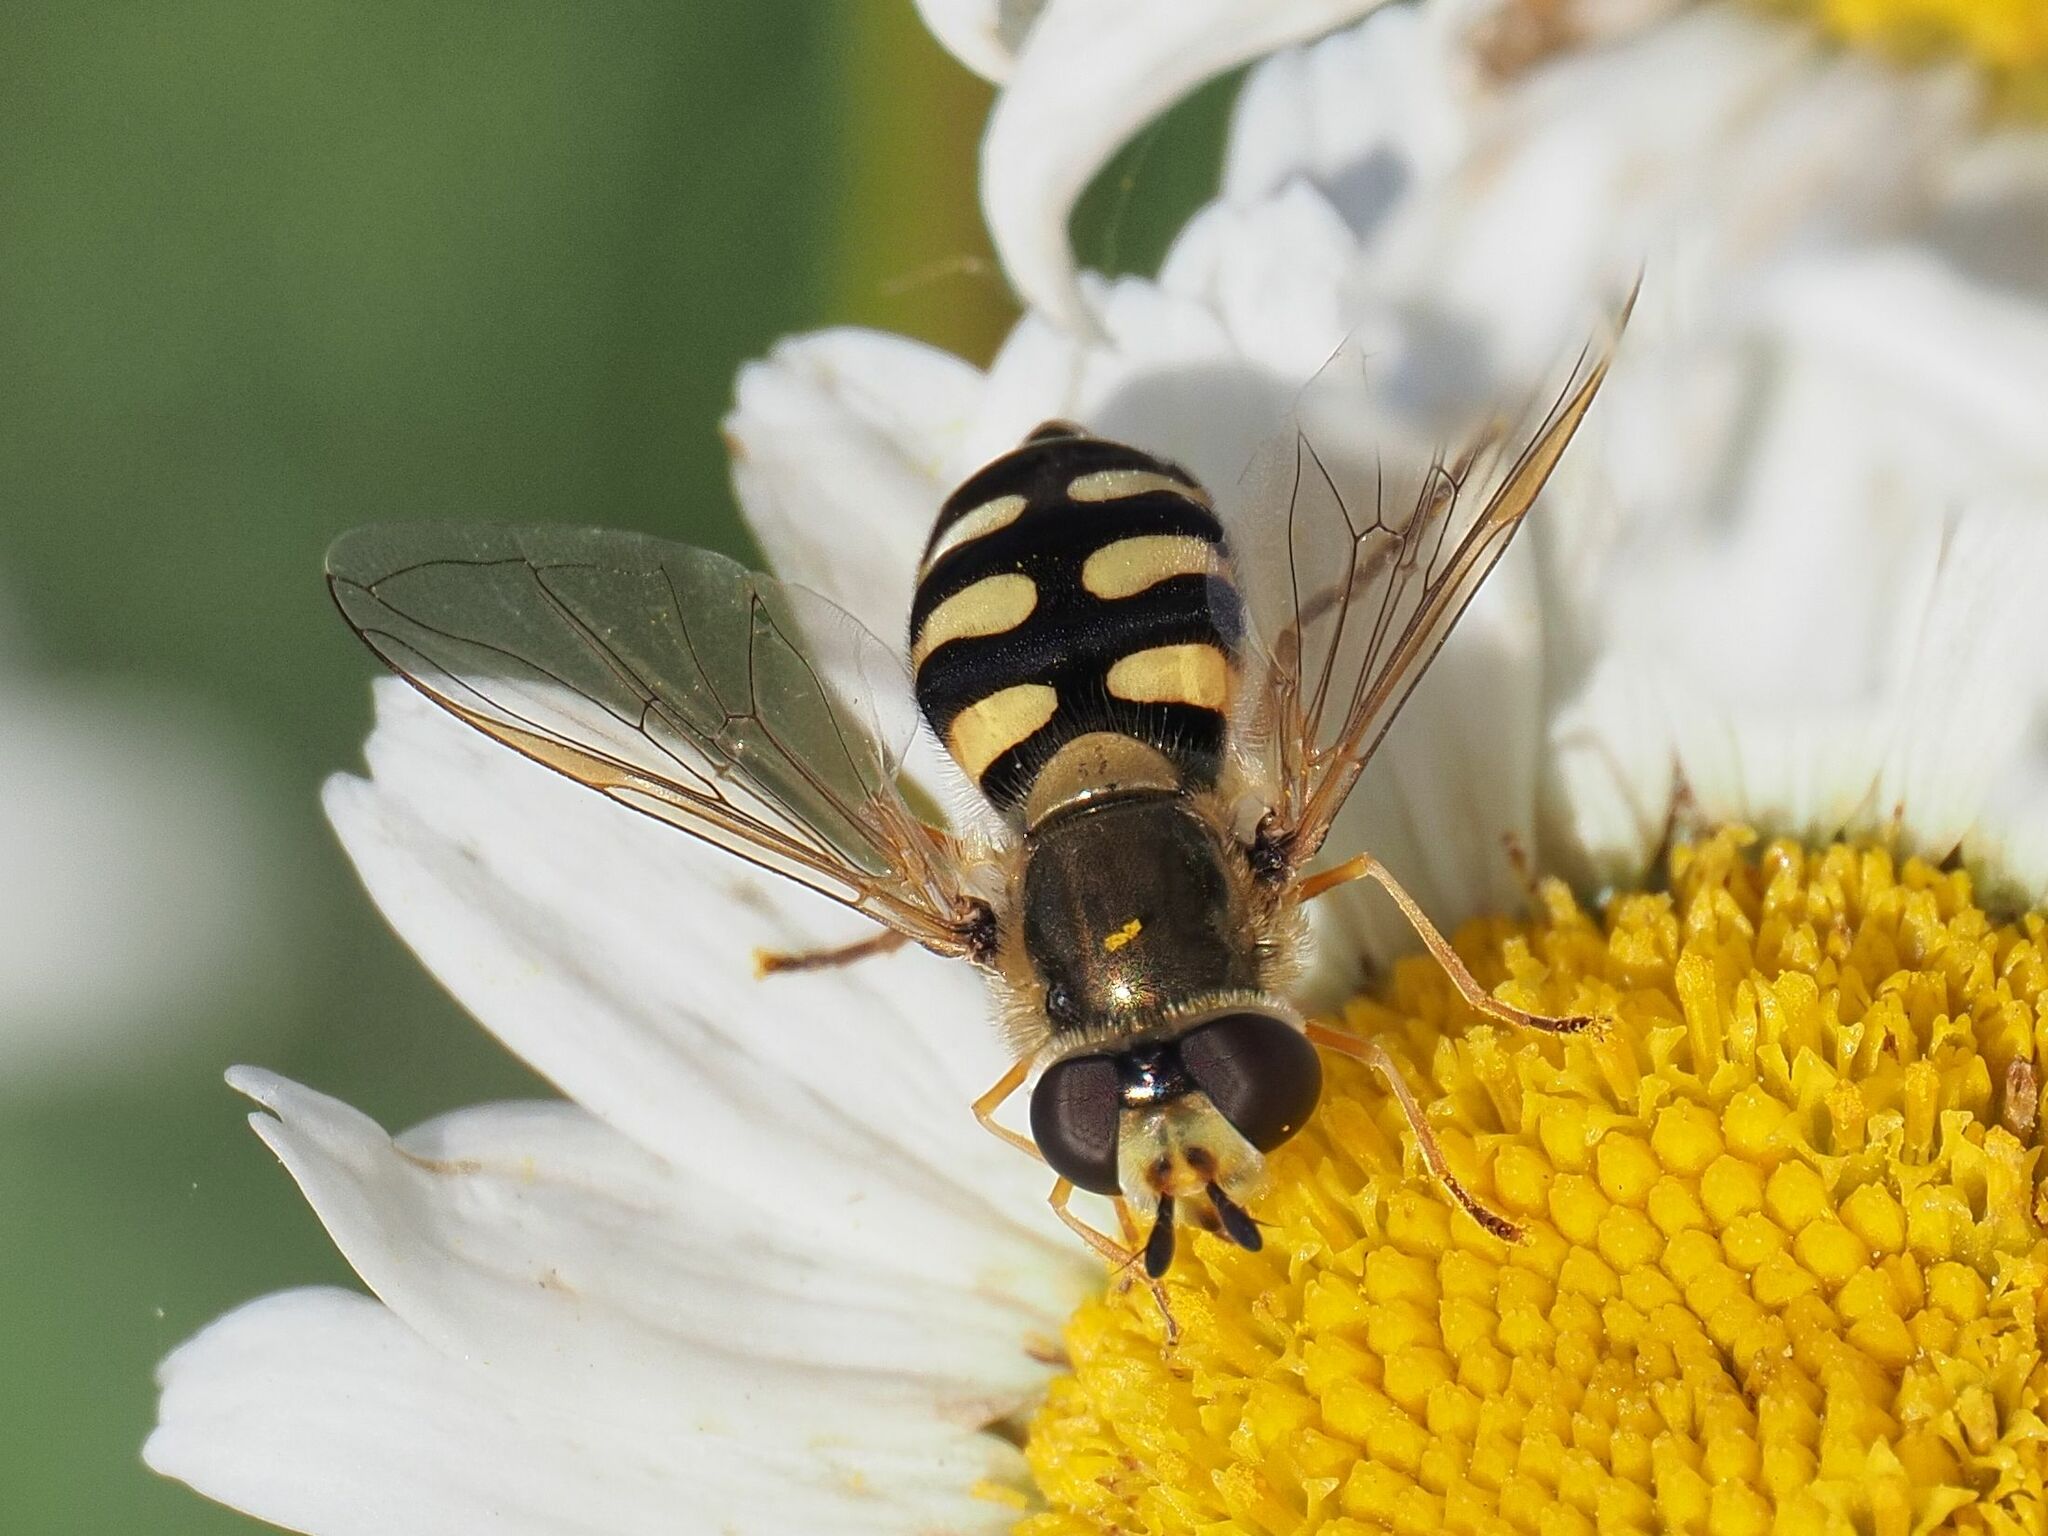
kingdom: Animalia
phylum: Arthropoda
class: Insecta
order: Diptera
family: Syrphidae
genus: Eupeodes
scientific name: Eupeodes corollae
